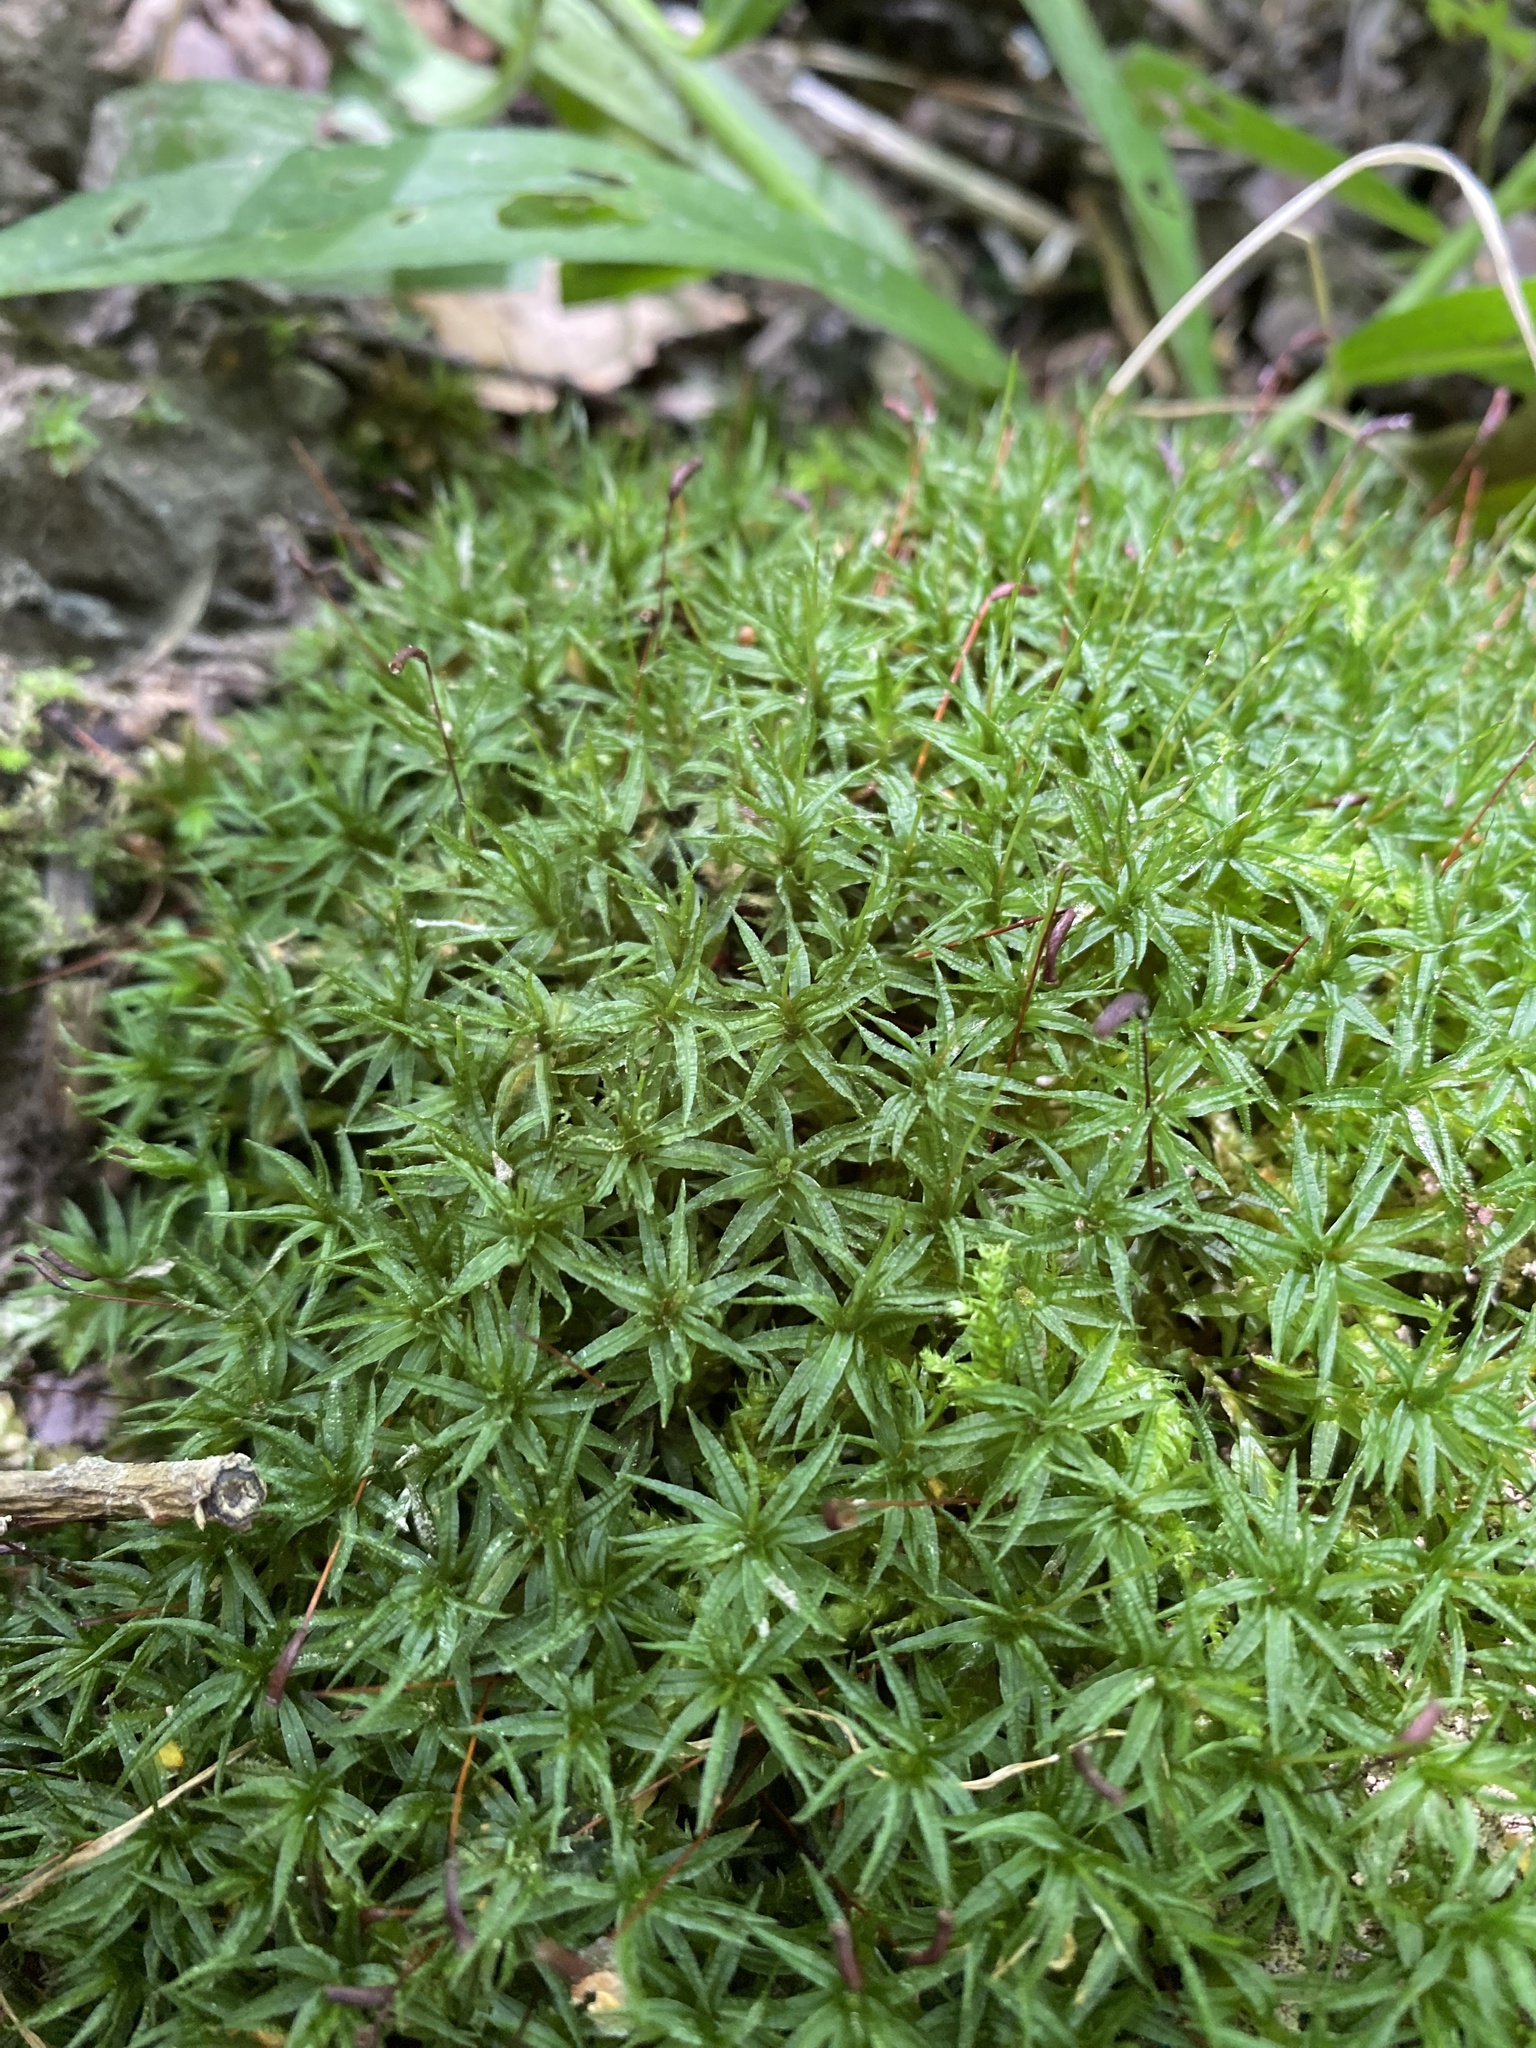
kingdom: Plantae
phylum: Bryophyta
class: Polytrichopsida
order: Polytrichales
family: Polytrichaceae
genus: Atrichum
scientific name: Atrichum undulatum
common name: Common smoothcap
